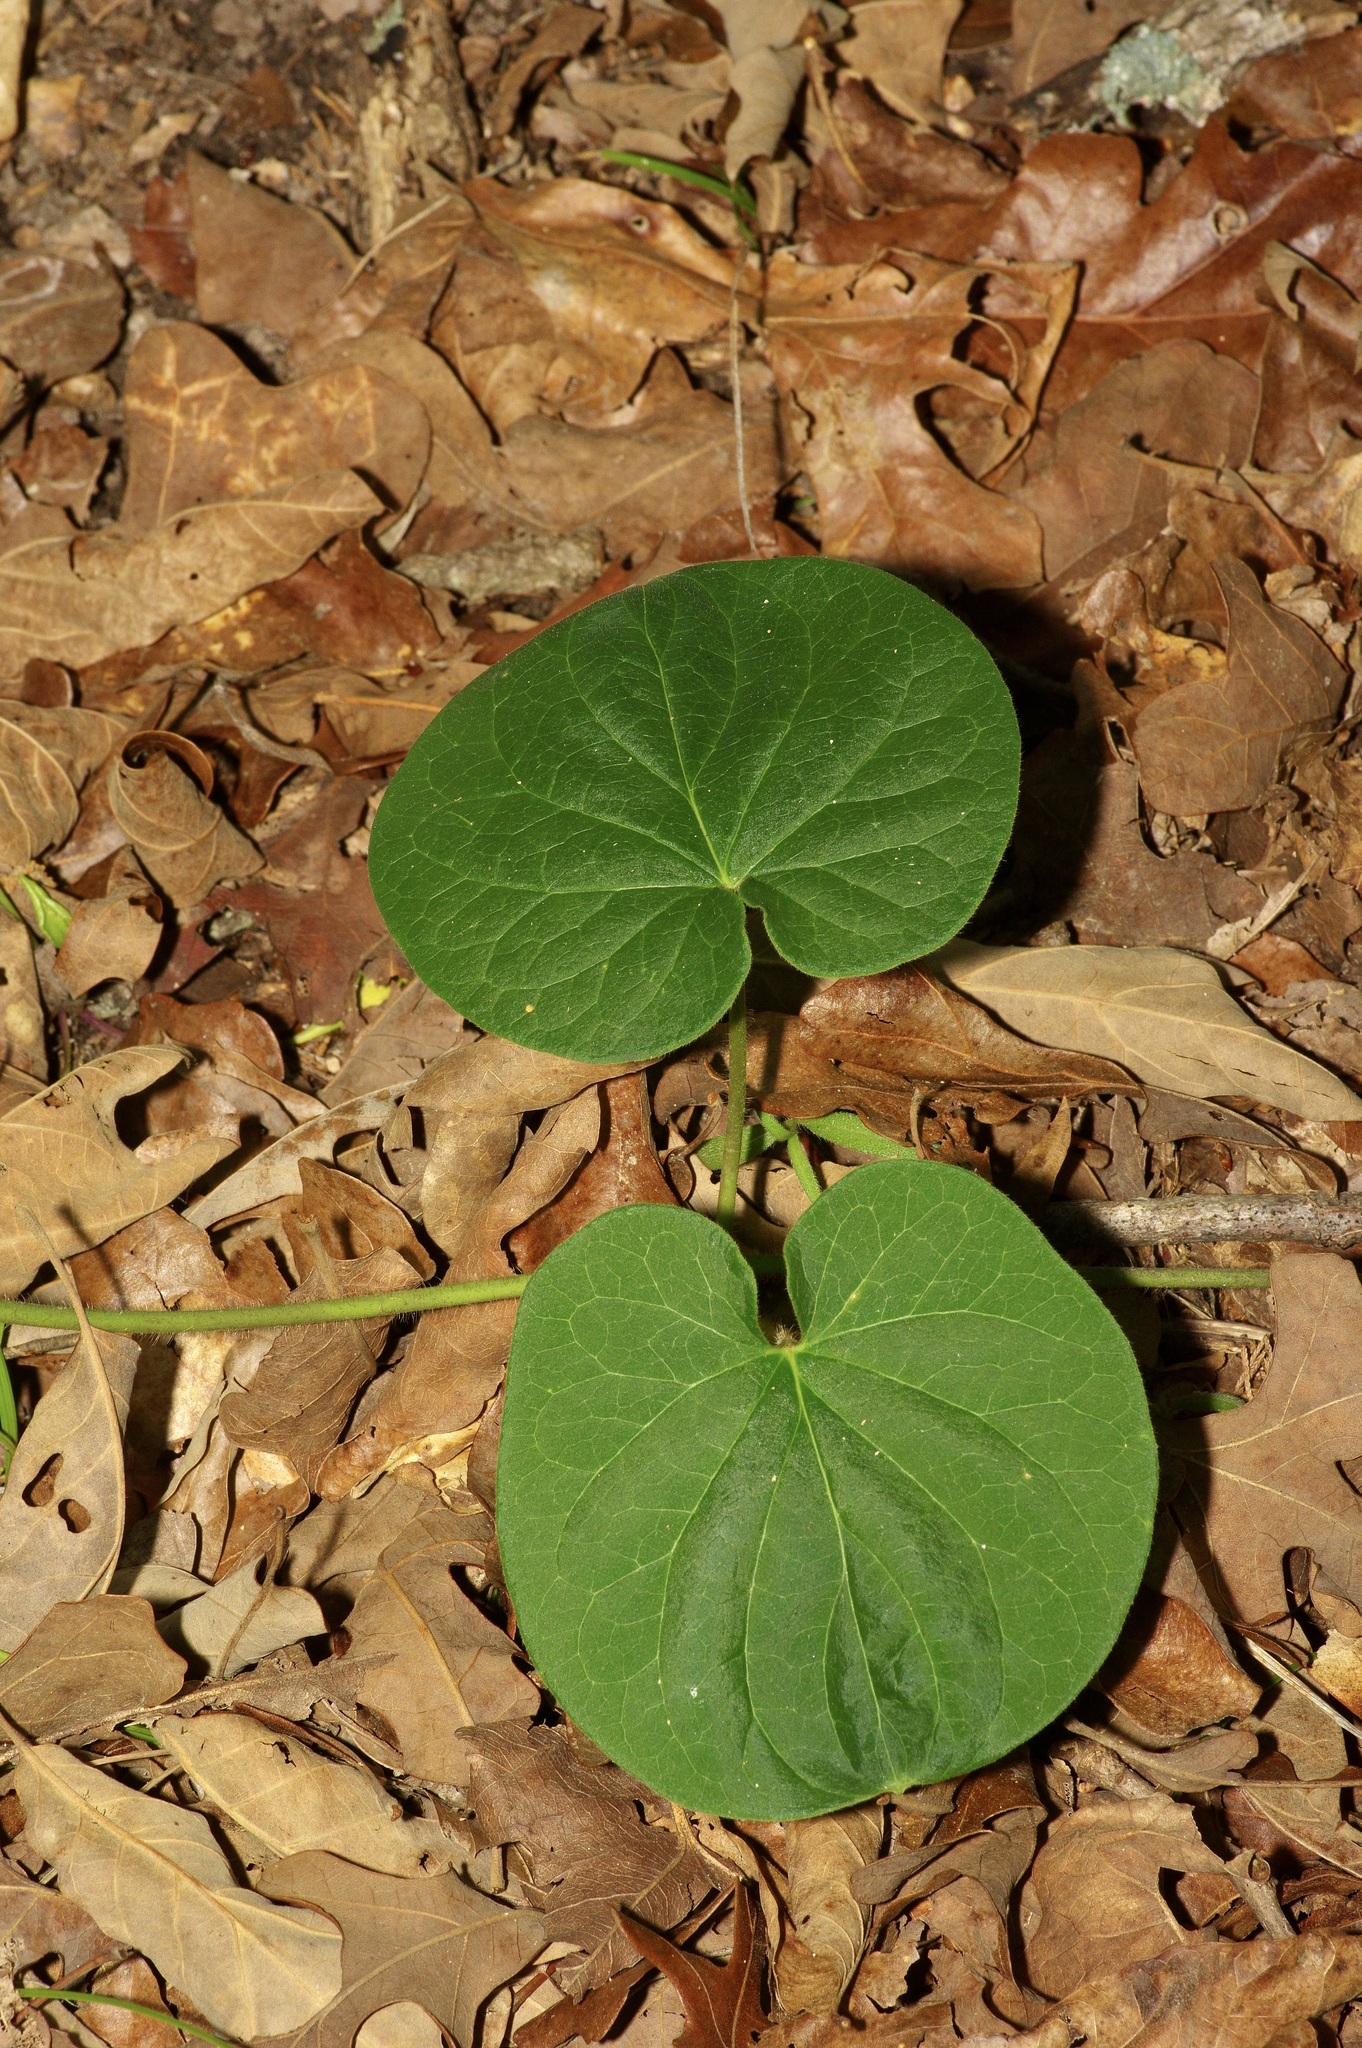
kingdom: Plantae
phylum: Tracheophyta
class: Magnoliopsida
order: Gentianales
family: Apocynaceae
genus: Matelea
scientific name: Matelea hirtelliflora
